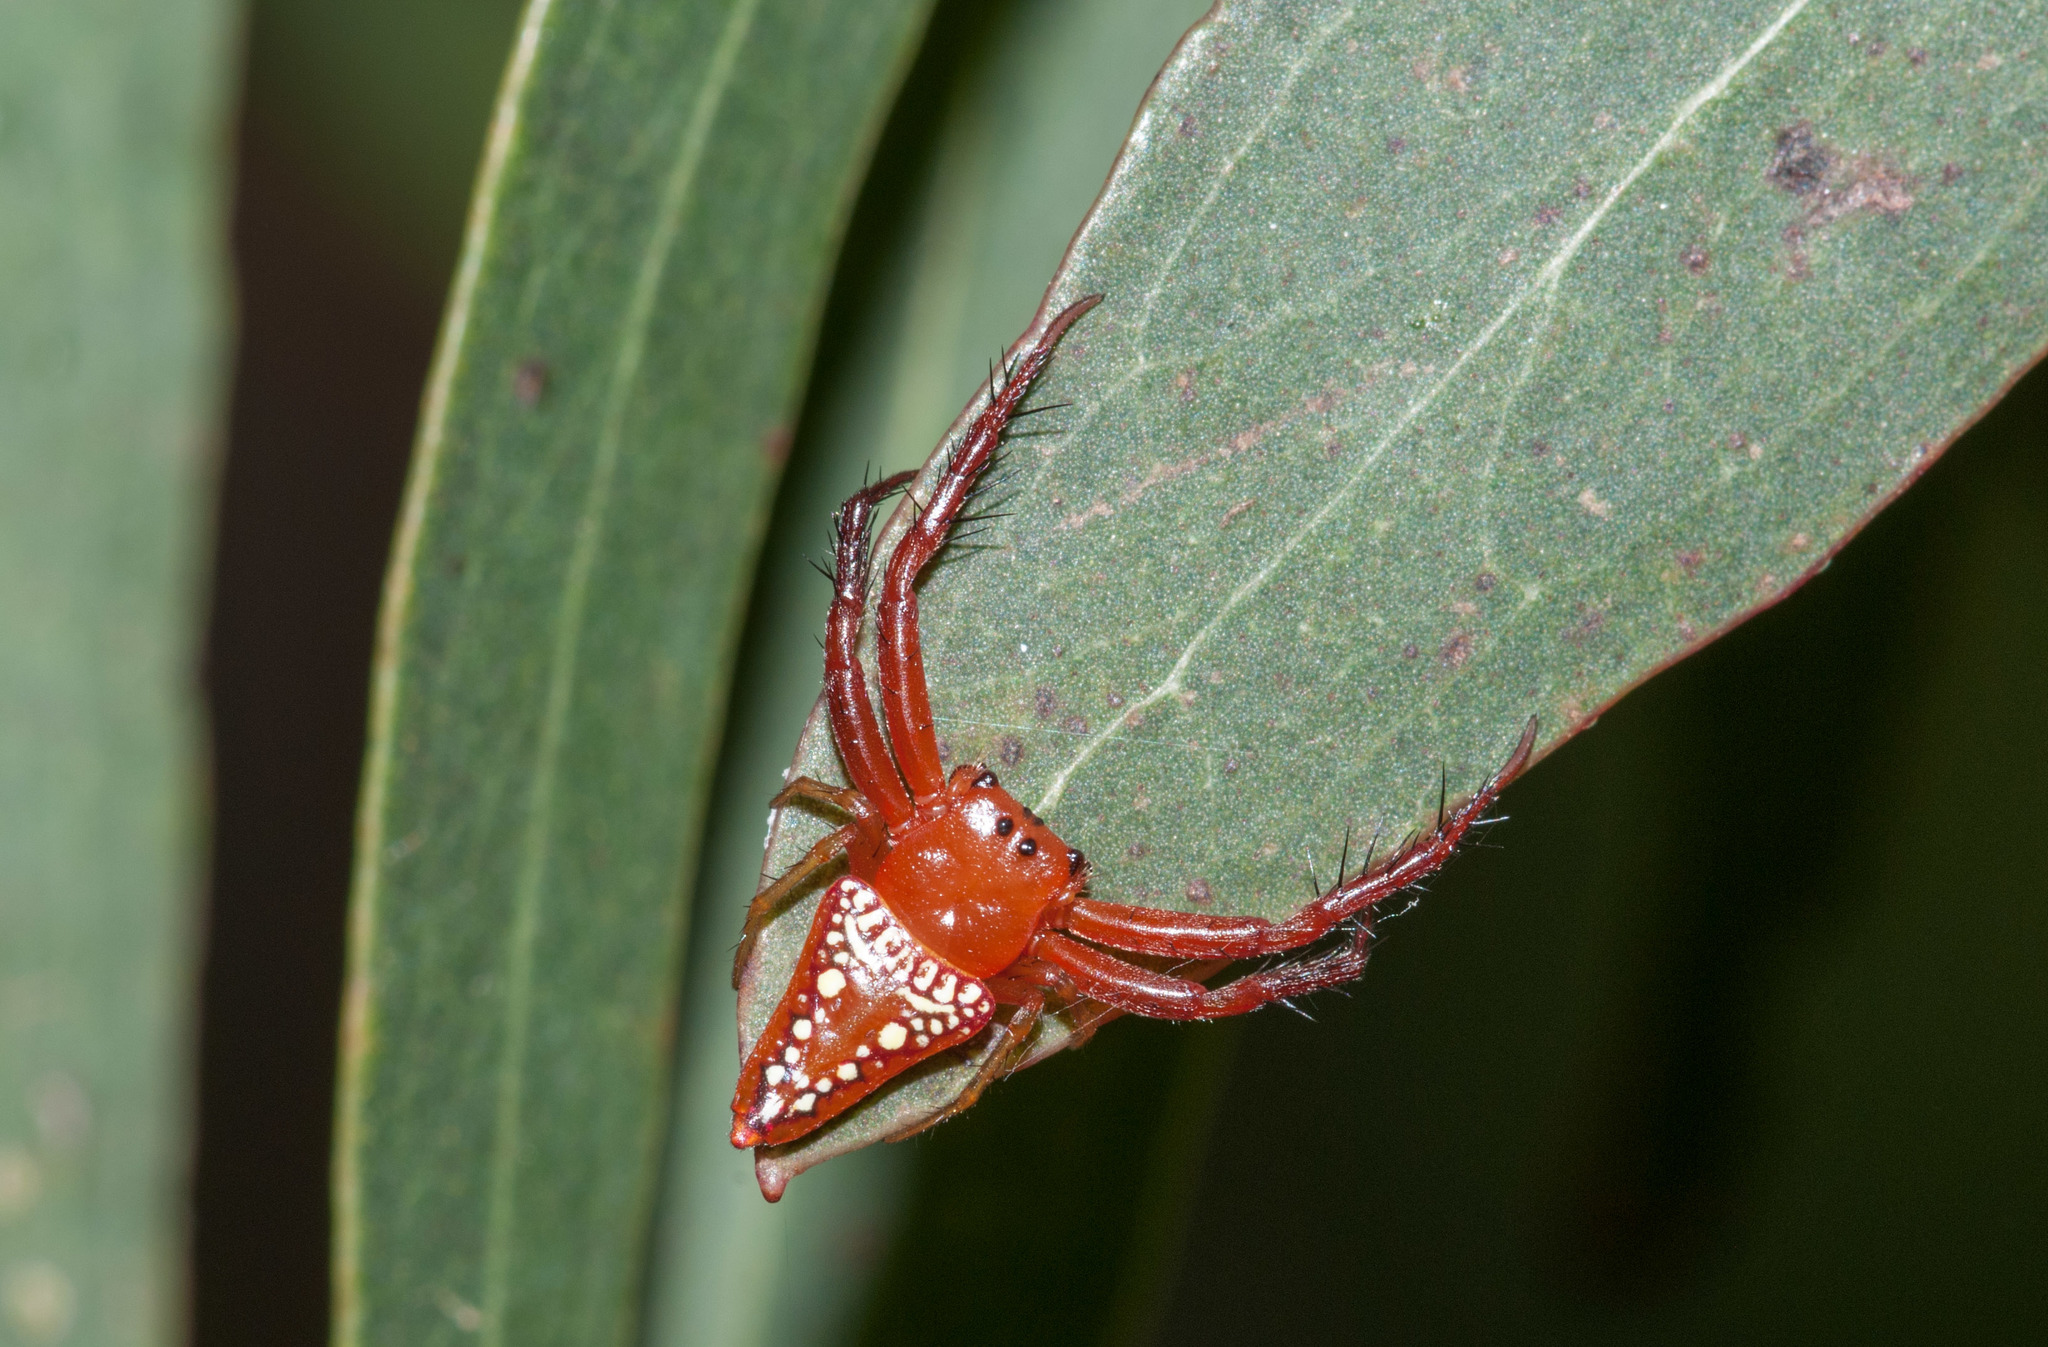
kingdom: Animalia
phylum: Arthropoda
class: Arachnida
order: Araneae
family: Arkyidae
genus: Arkys
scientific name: Arkys walckenaeri
